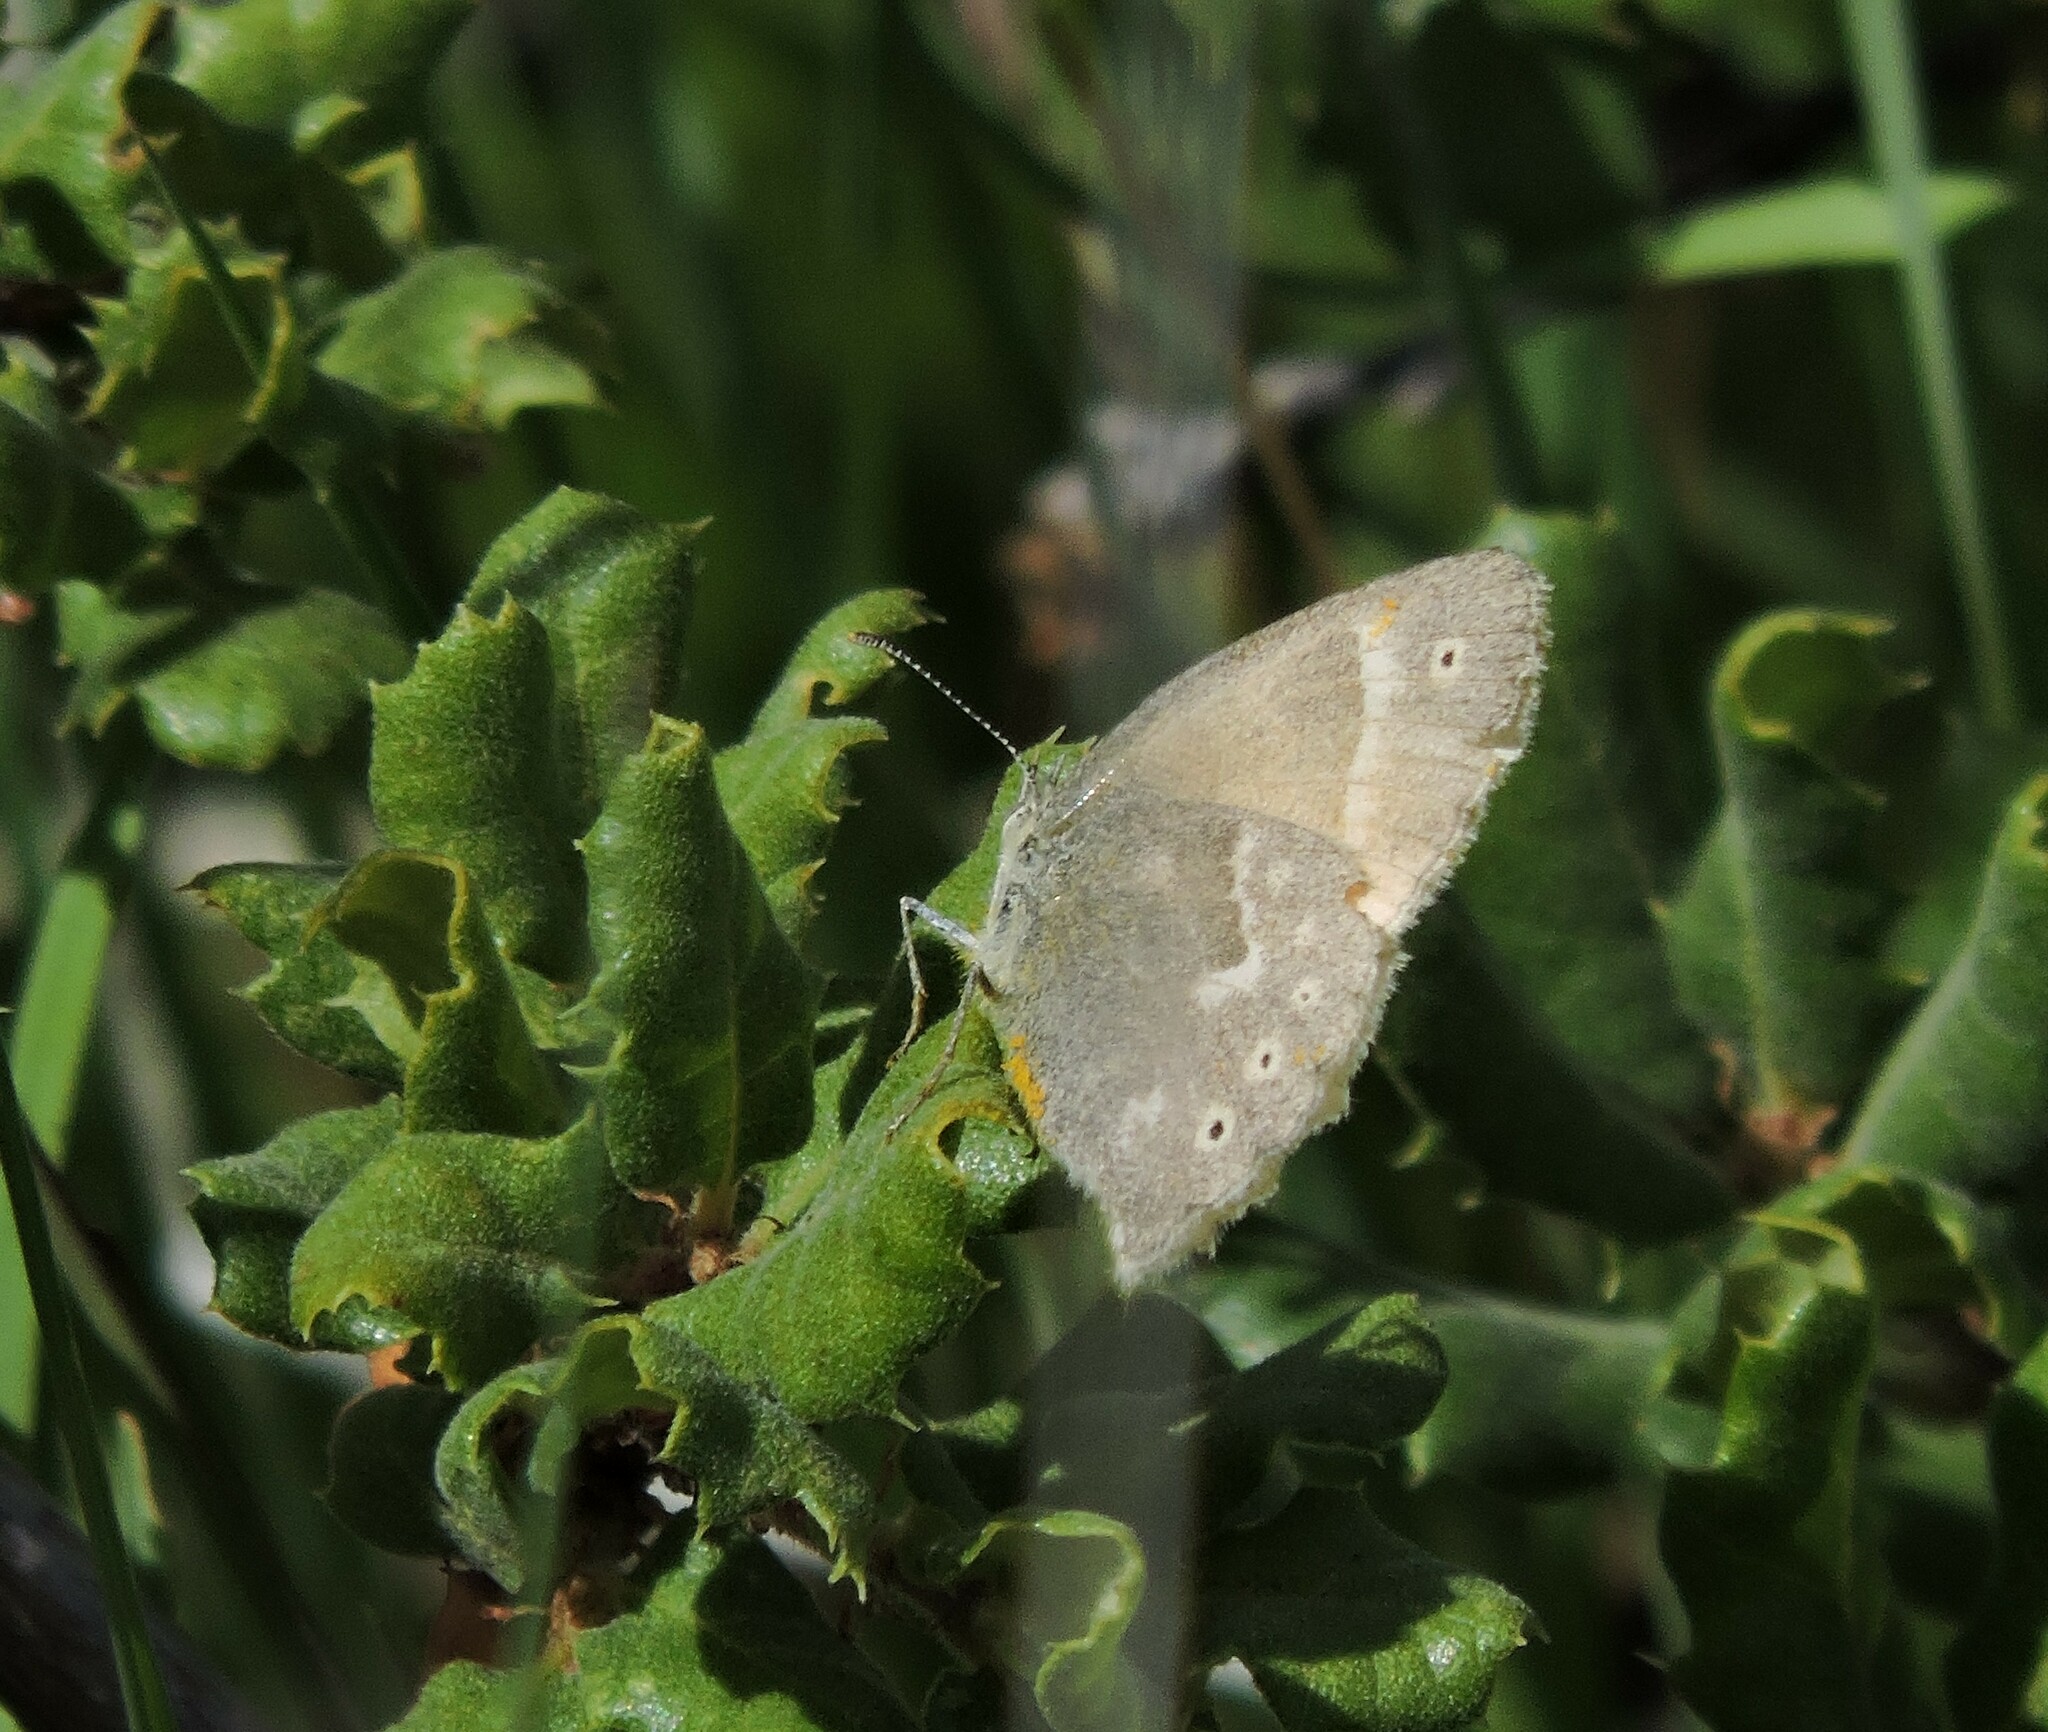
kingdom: Animalia
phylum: Arthropoda
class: Insecta
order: Lepidoptera
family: Nymphalidae
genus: Coenonympha
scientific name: Coenonympha california
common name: Common ringlet
